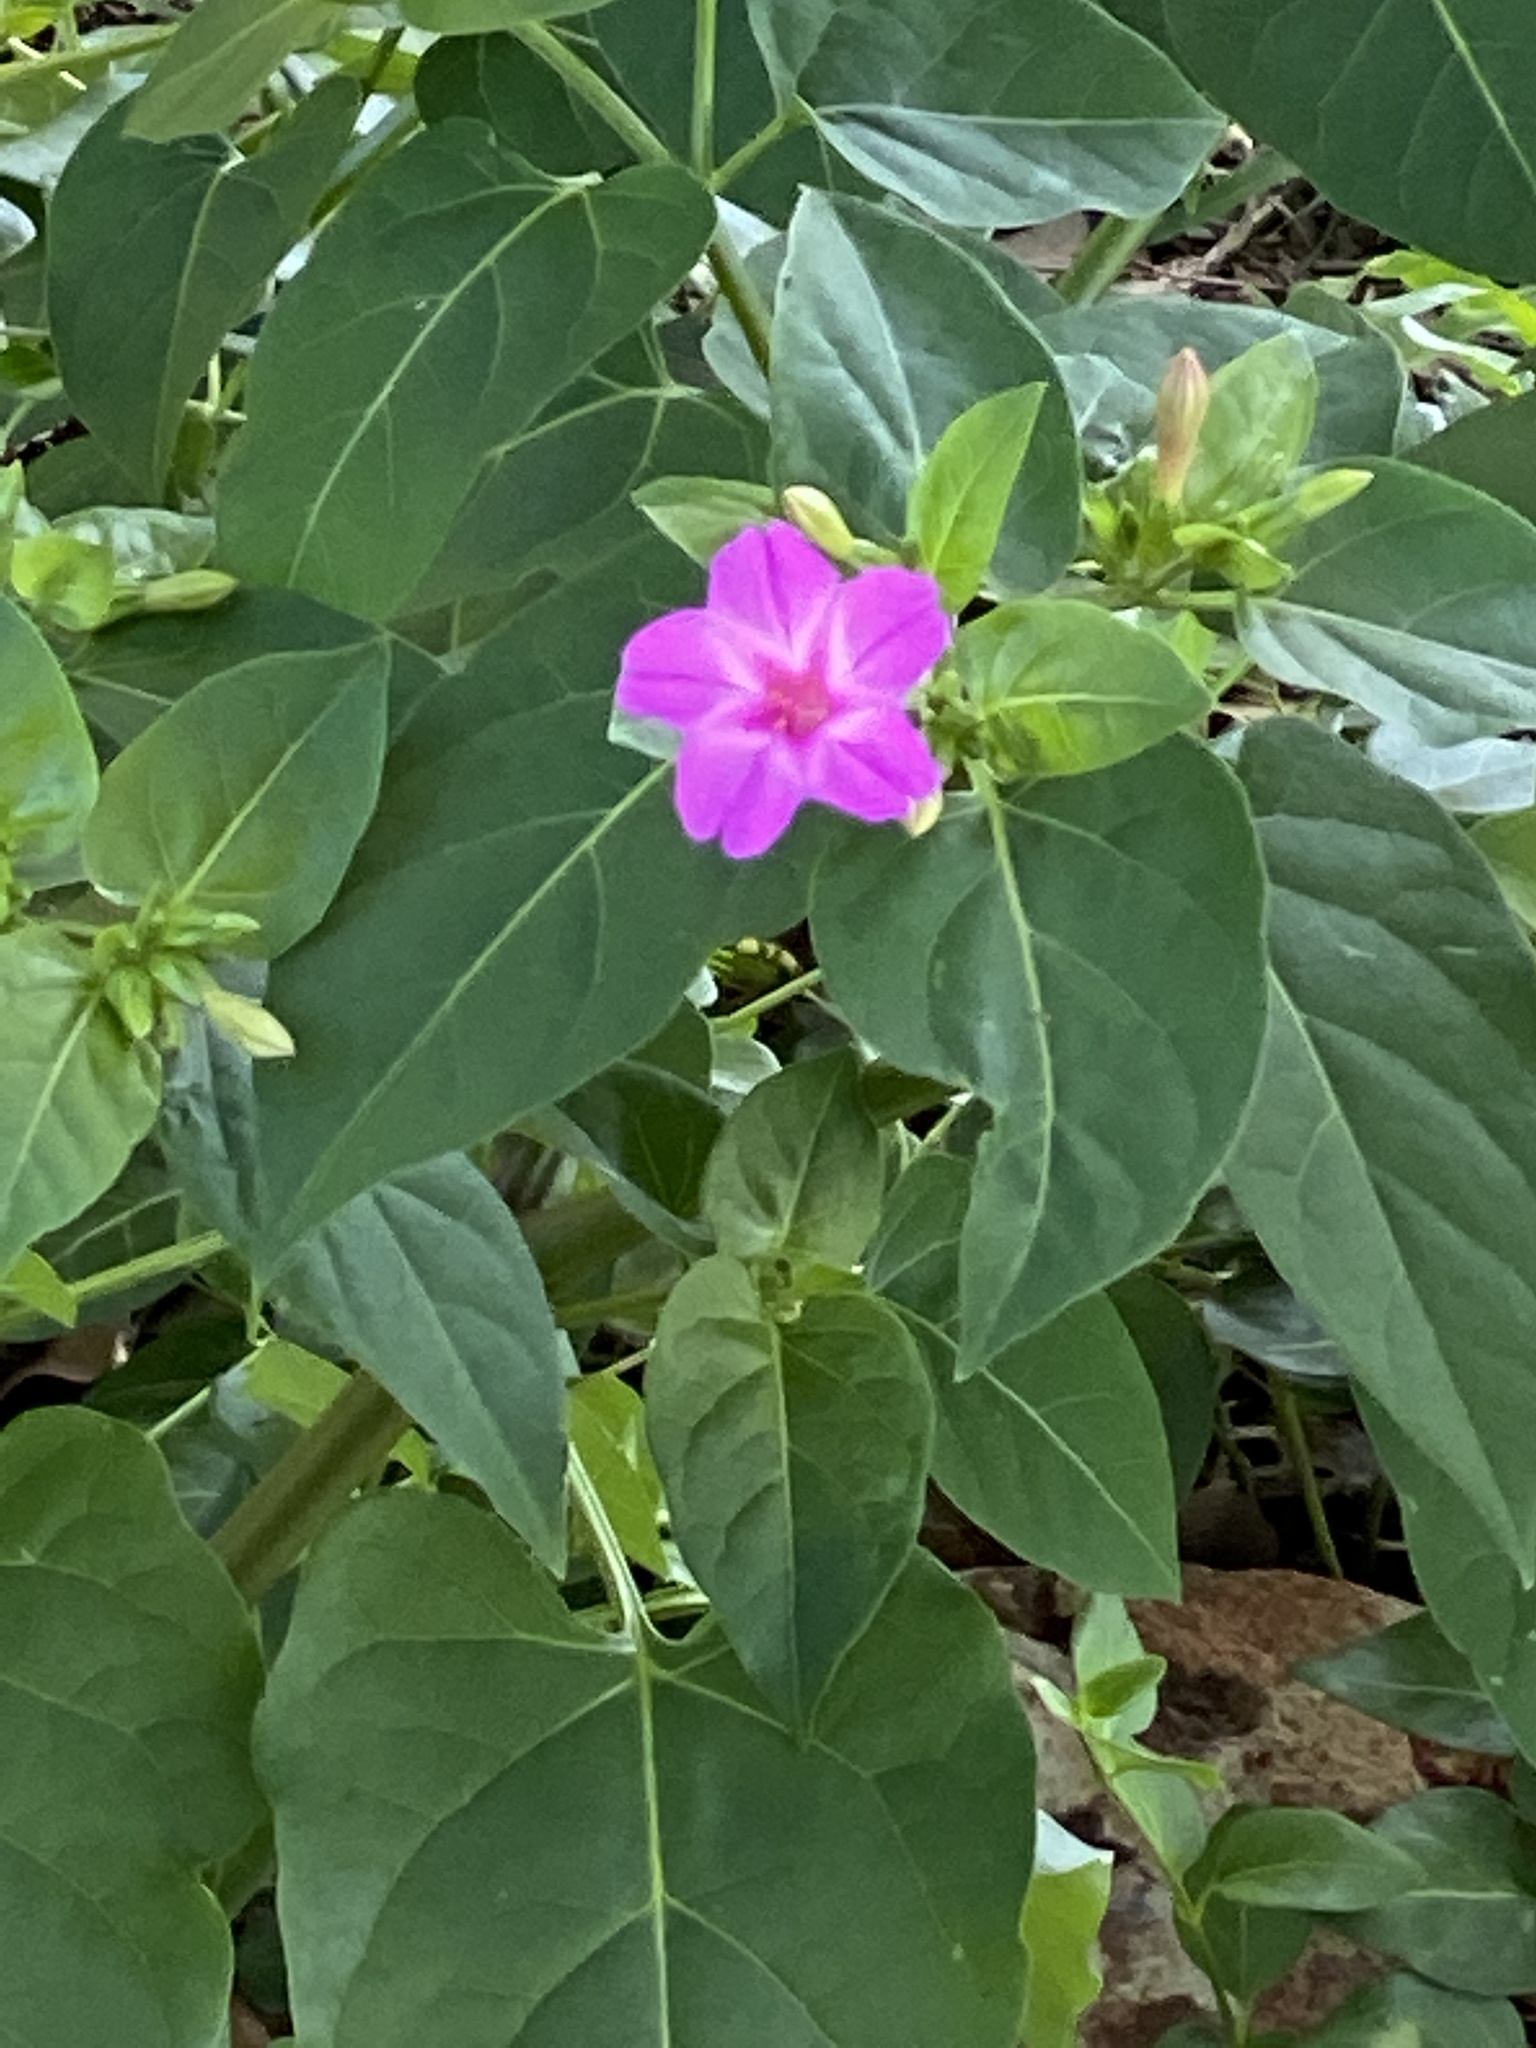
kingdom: Plantae
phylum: Tracheophyta
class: Magnoliopsida
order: Caryophyllales
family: Nyctaginaceae
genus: Mirabilis
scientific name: Mirabilis jalapa
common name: Marvel-of-peru
